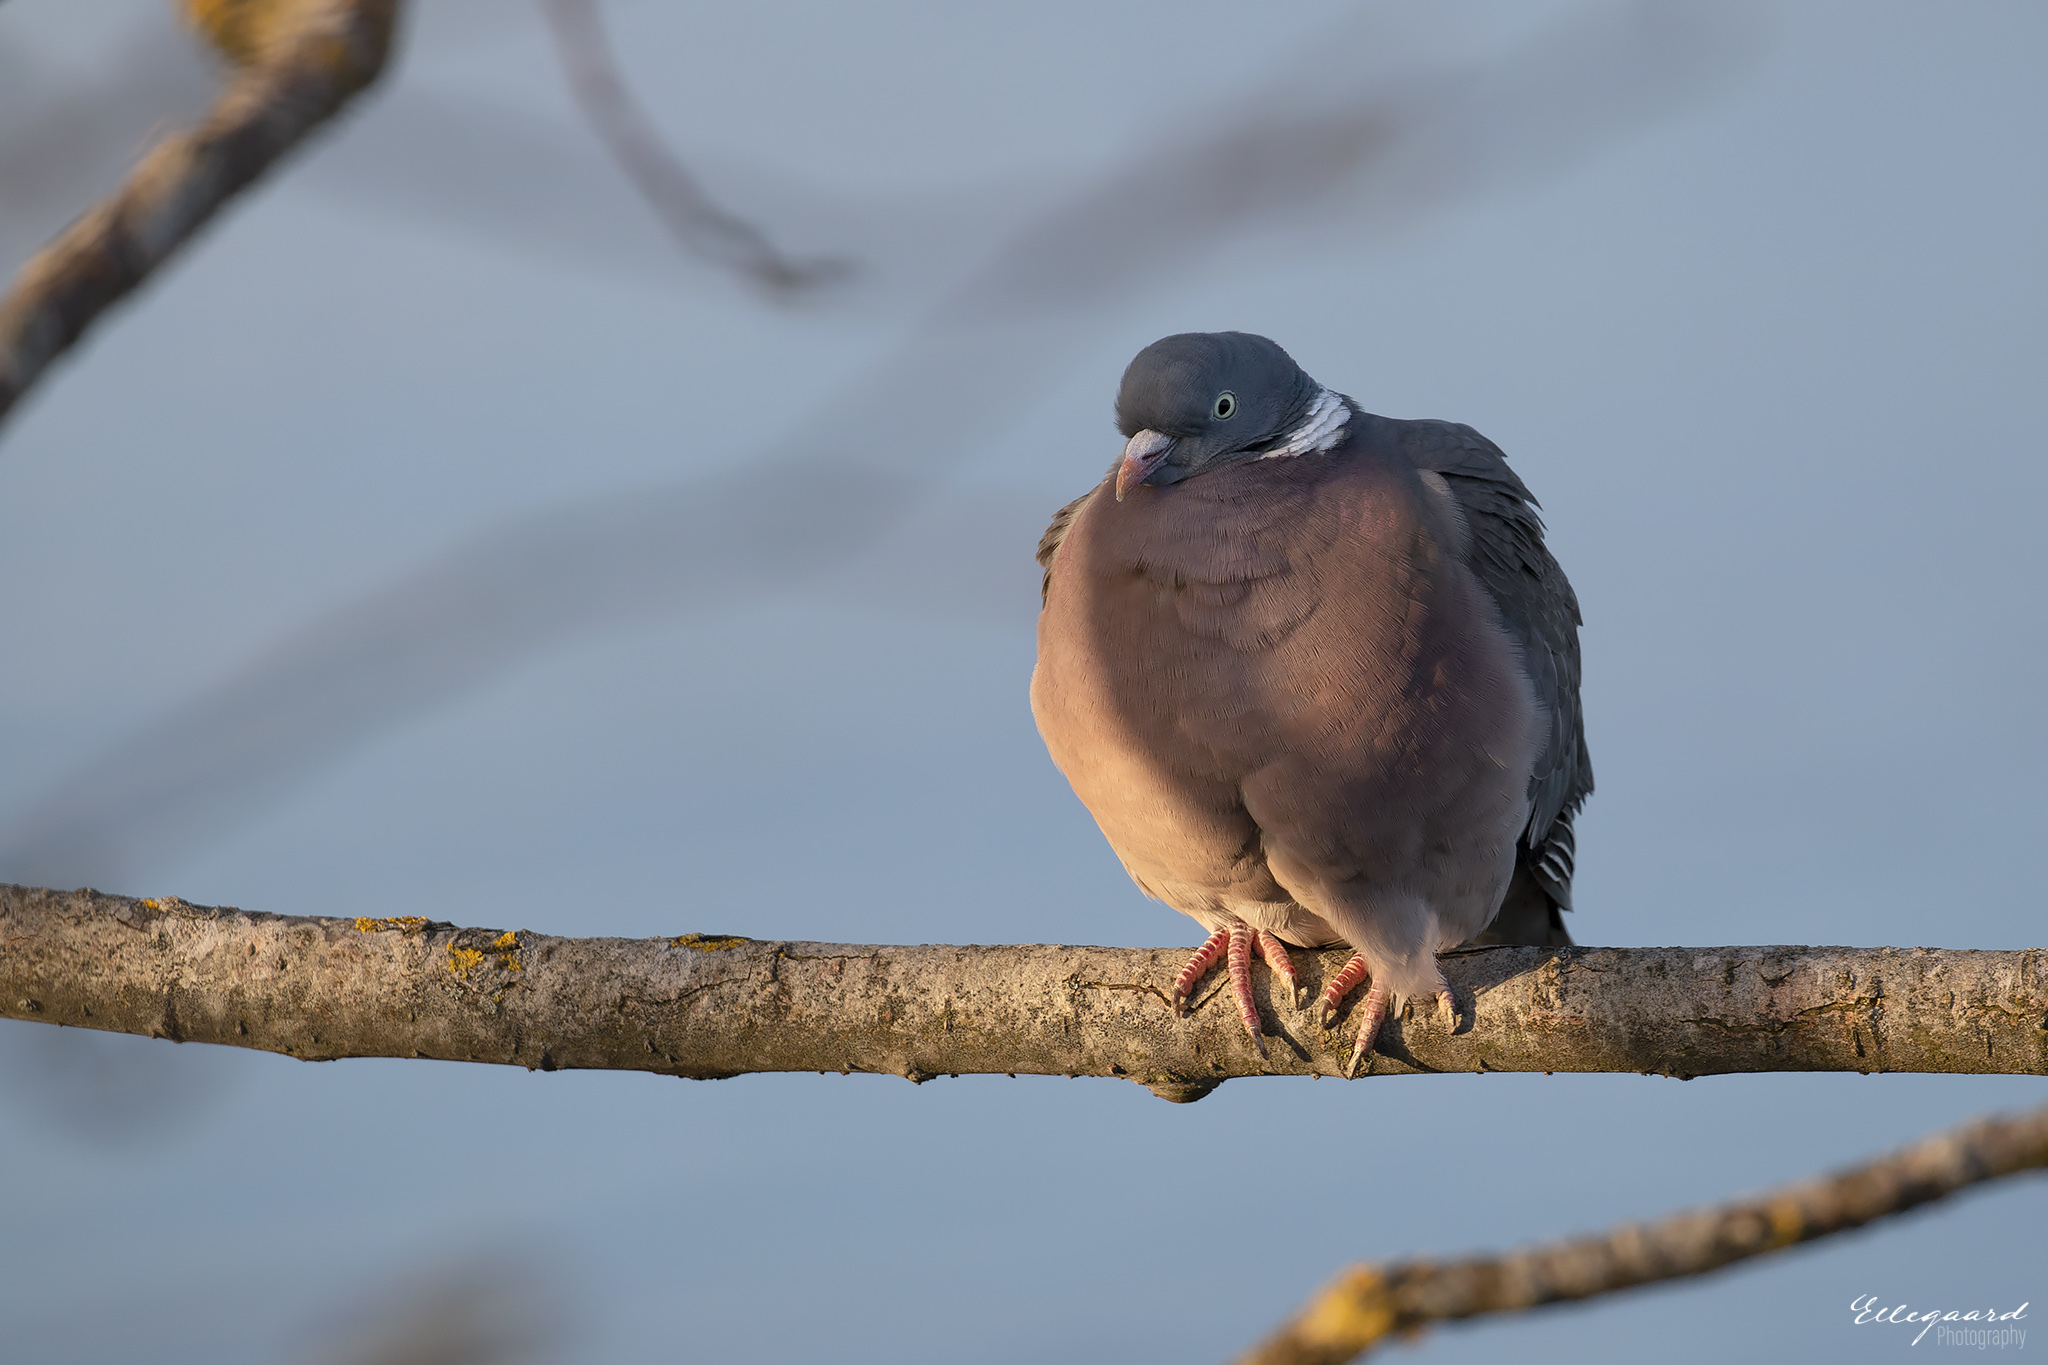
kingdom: Animalia
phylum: Chordata
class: Aves
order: Columbiformes
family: Columbidae
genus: Columba
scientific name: Columba palumbus
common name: Common wood pigeon
